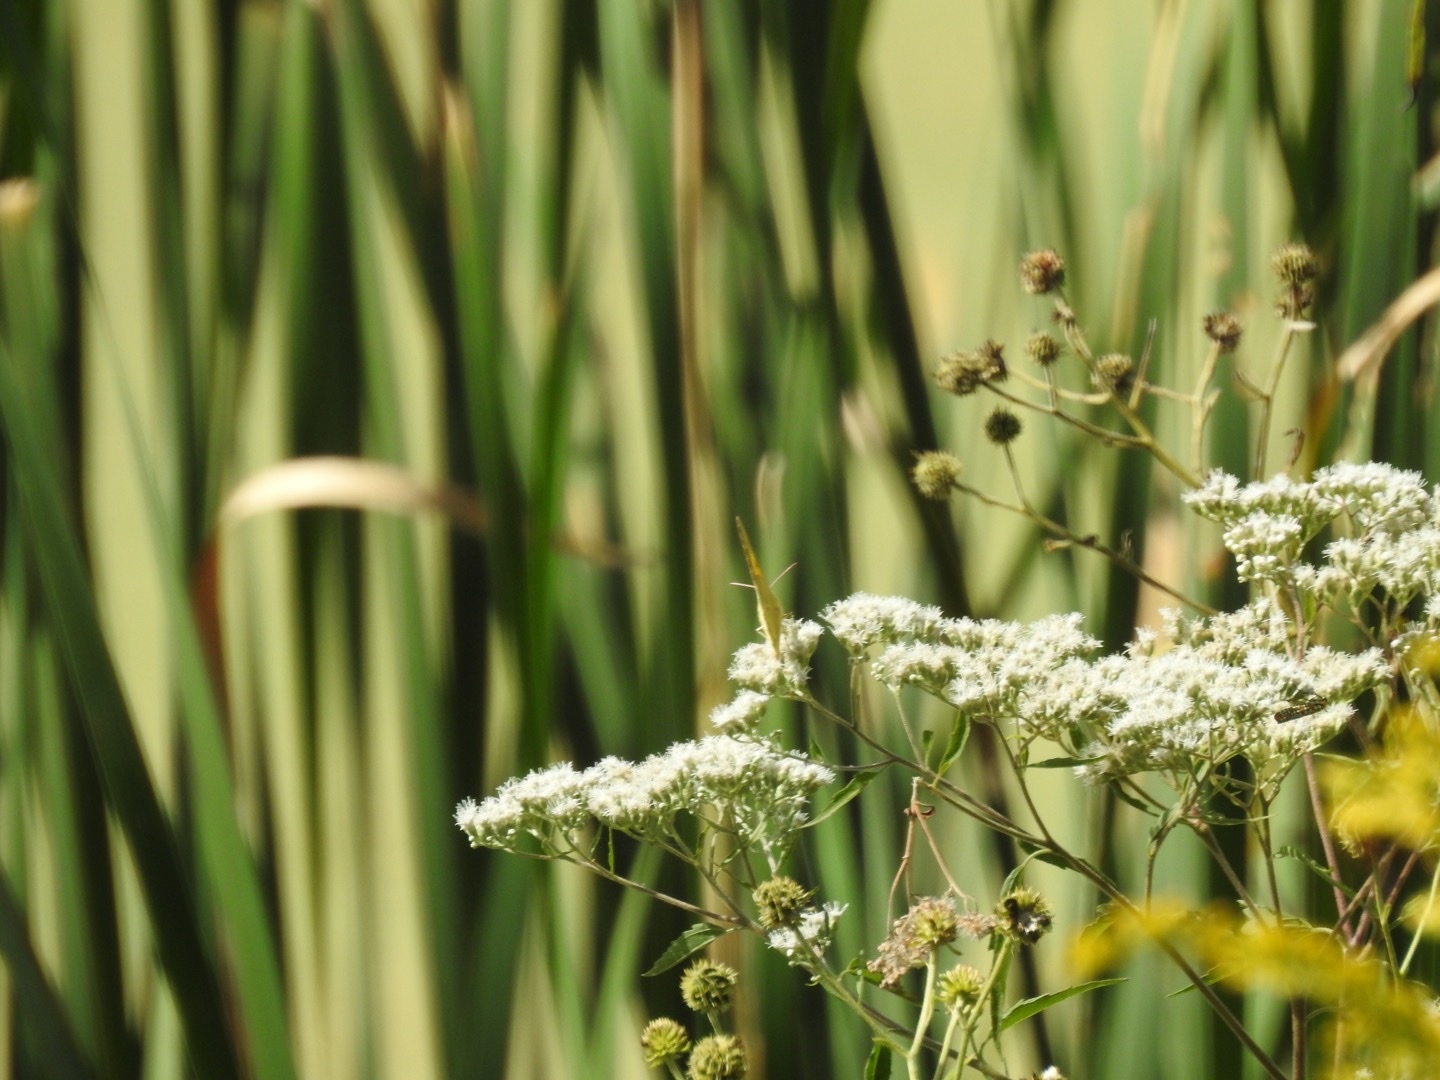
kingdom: Plantae
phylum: Tracheophyta
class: Magnoliopsida
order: Asterales
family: Asteraceae
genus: Eupatorium
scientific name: Eupatorium serotinum
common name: Late boneset
